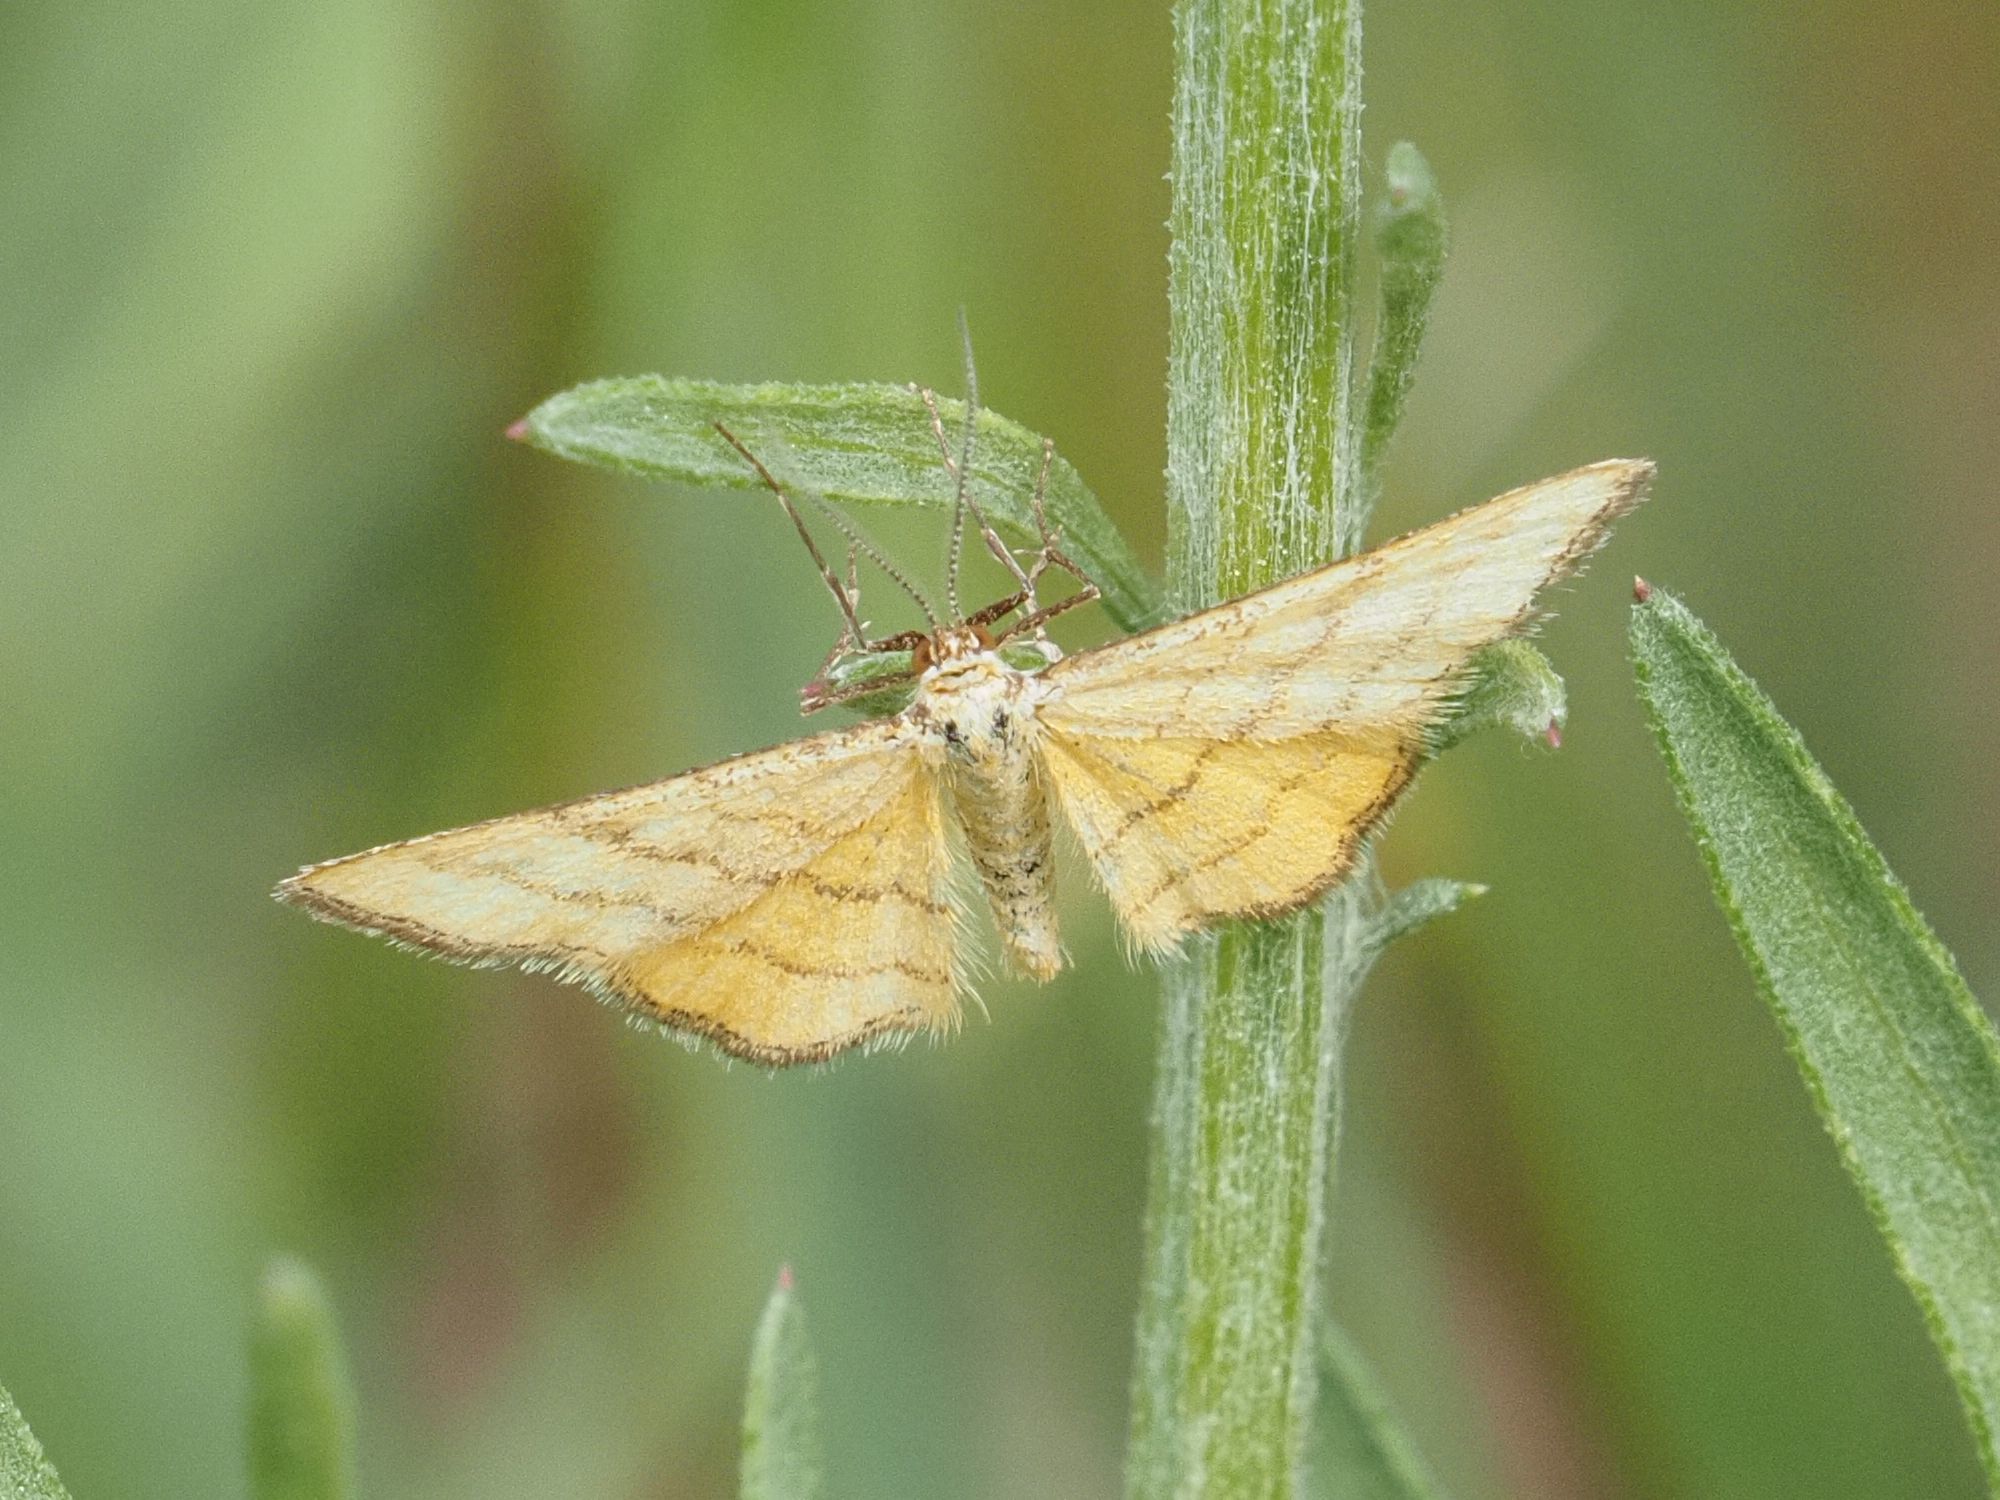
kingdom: Animalia
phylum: Arthropoda
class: Insecta
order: Lepidoptera
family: Geometridae
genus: Idaea
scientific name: Idaea aureolaria
